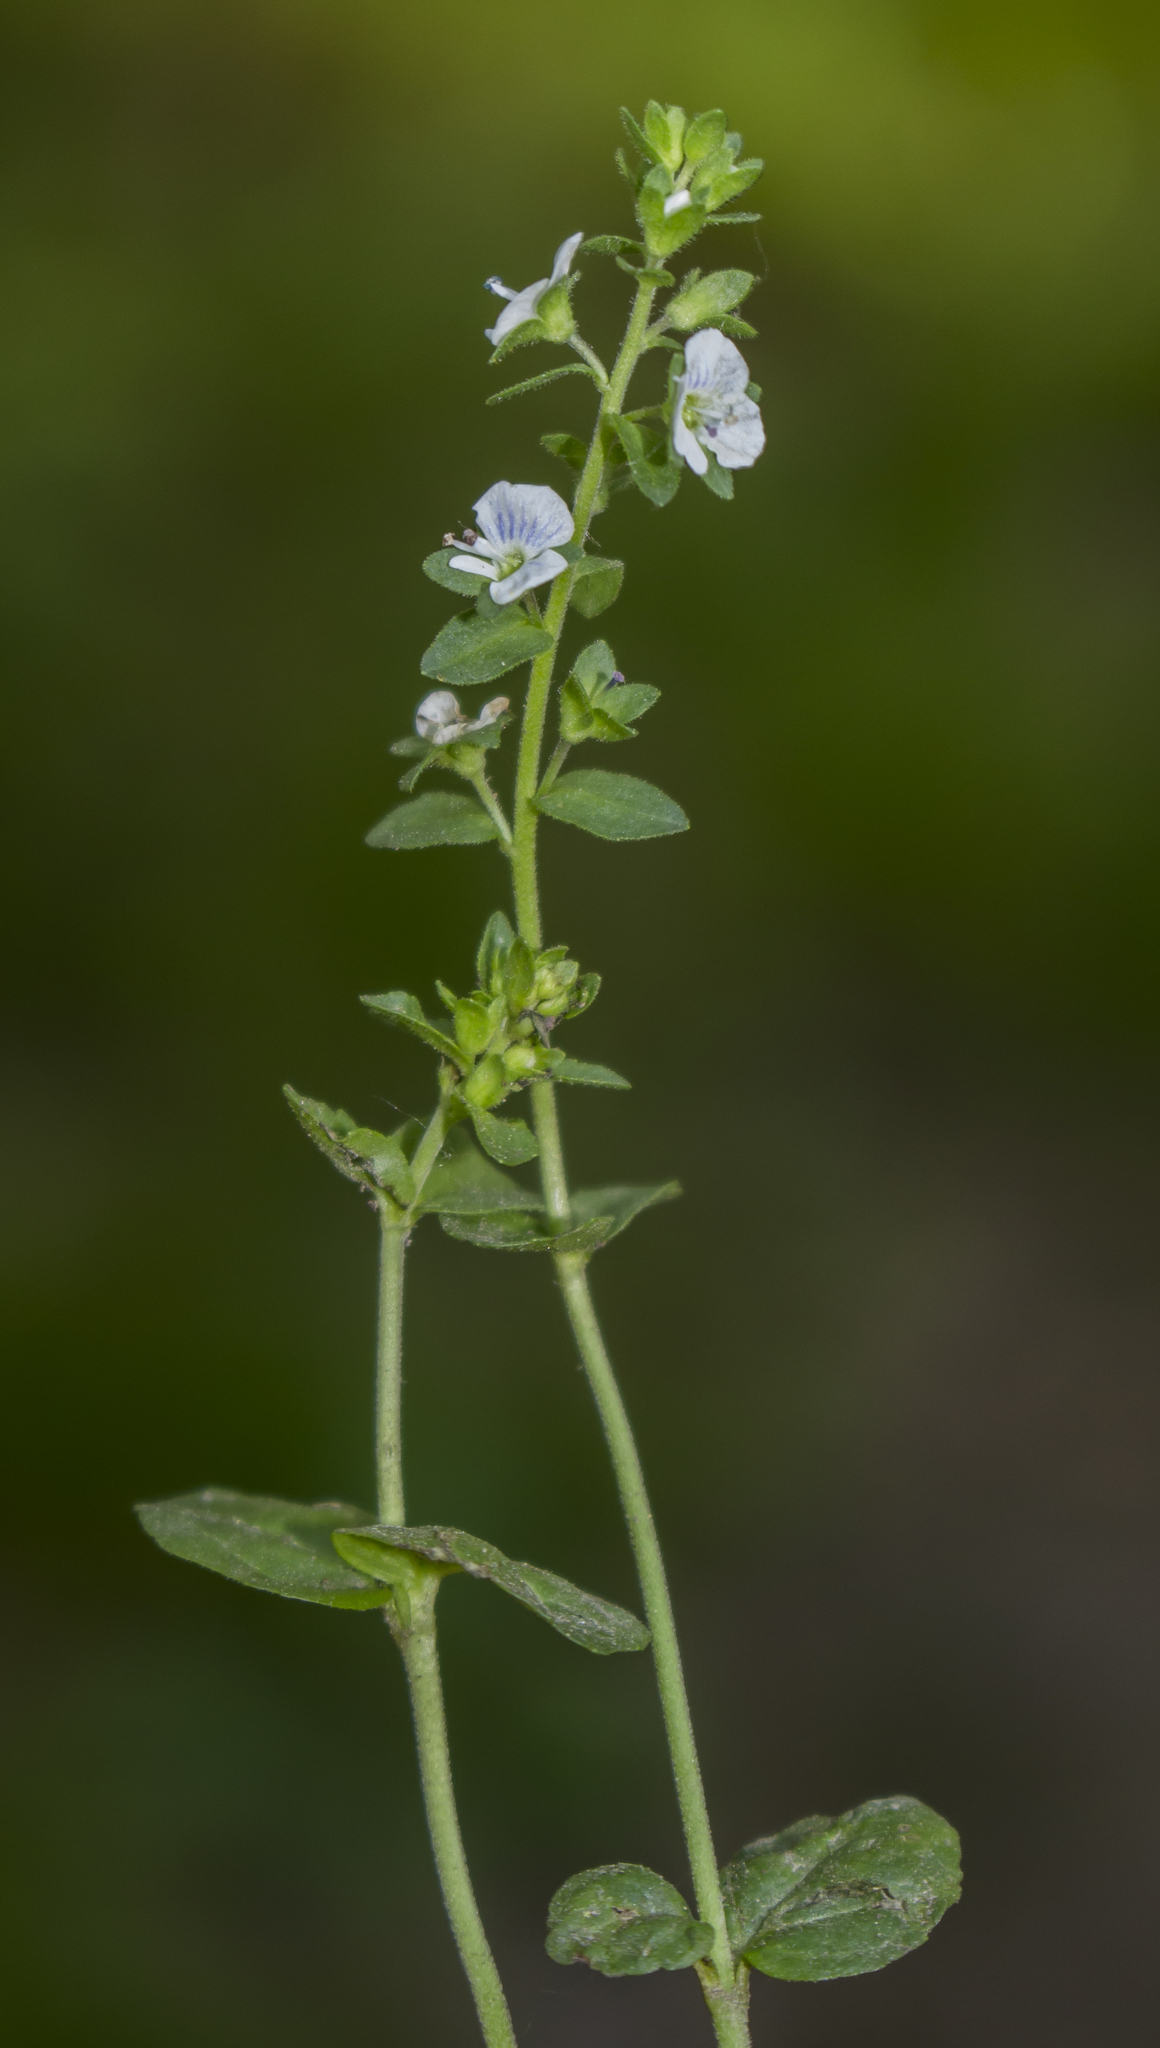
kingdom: Plantae
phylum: Tracheophyta
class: Magnoliopsida
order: Lamiales
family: Plantaginaceae
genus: Veronica
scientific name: Veronica serpyllifolia
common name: Thyme-leaved speedwell
